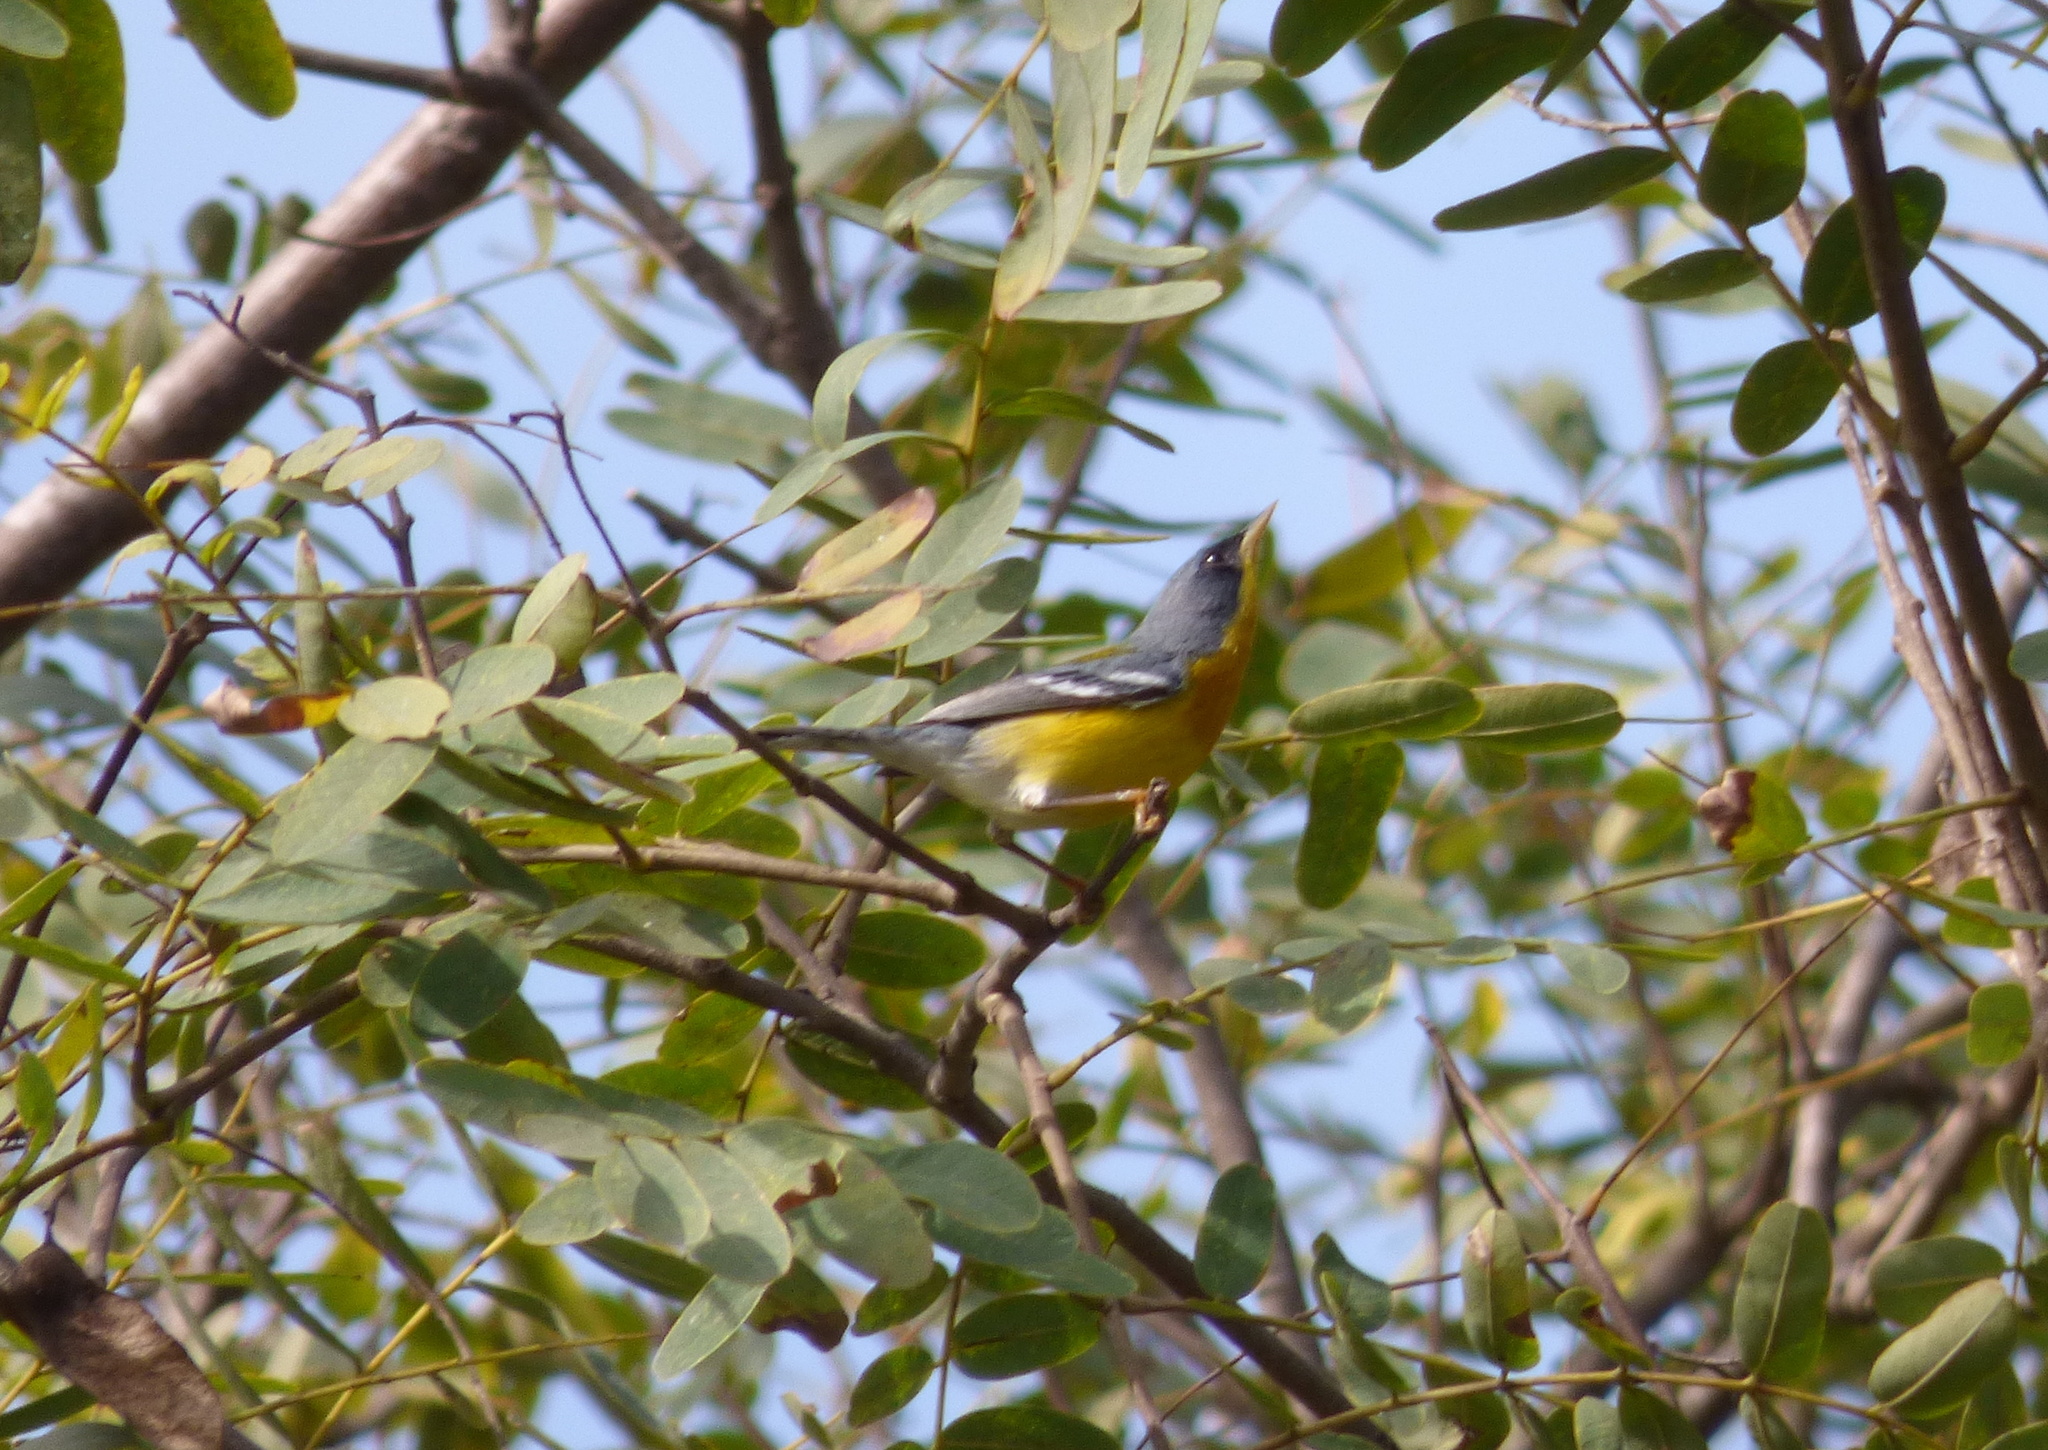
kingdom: Animalia
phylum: Chordata
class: Aves
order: Passeriformes
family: Parulidae
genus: Setophaga
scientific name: Setophaga pitiayumi
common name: Tropical parula
